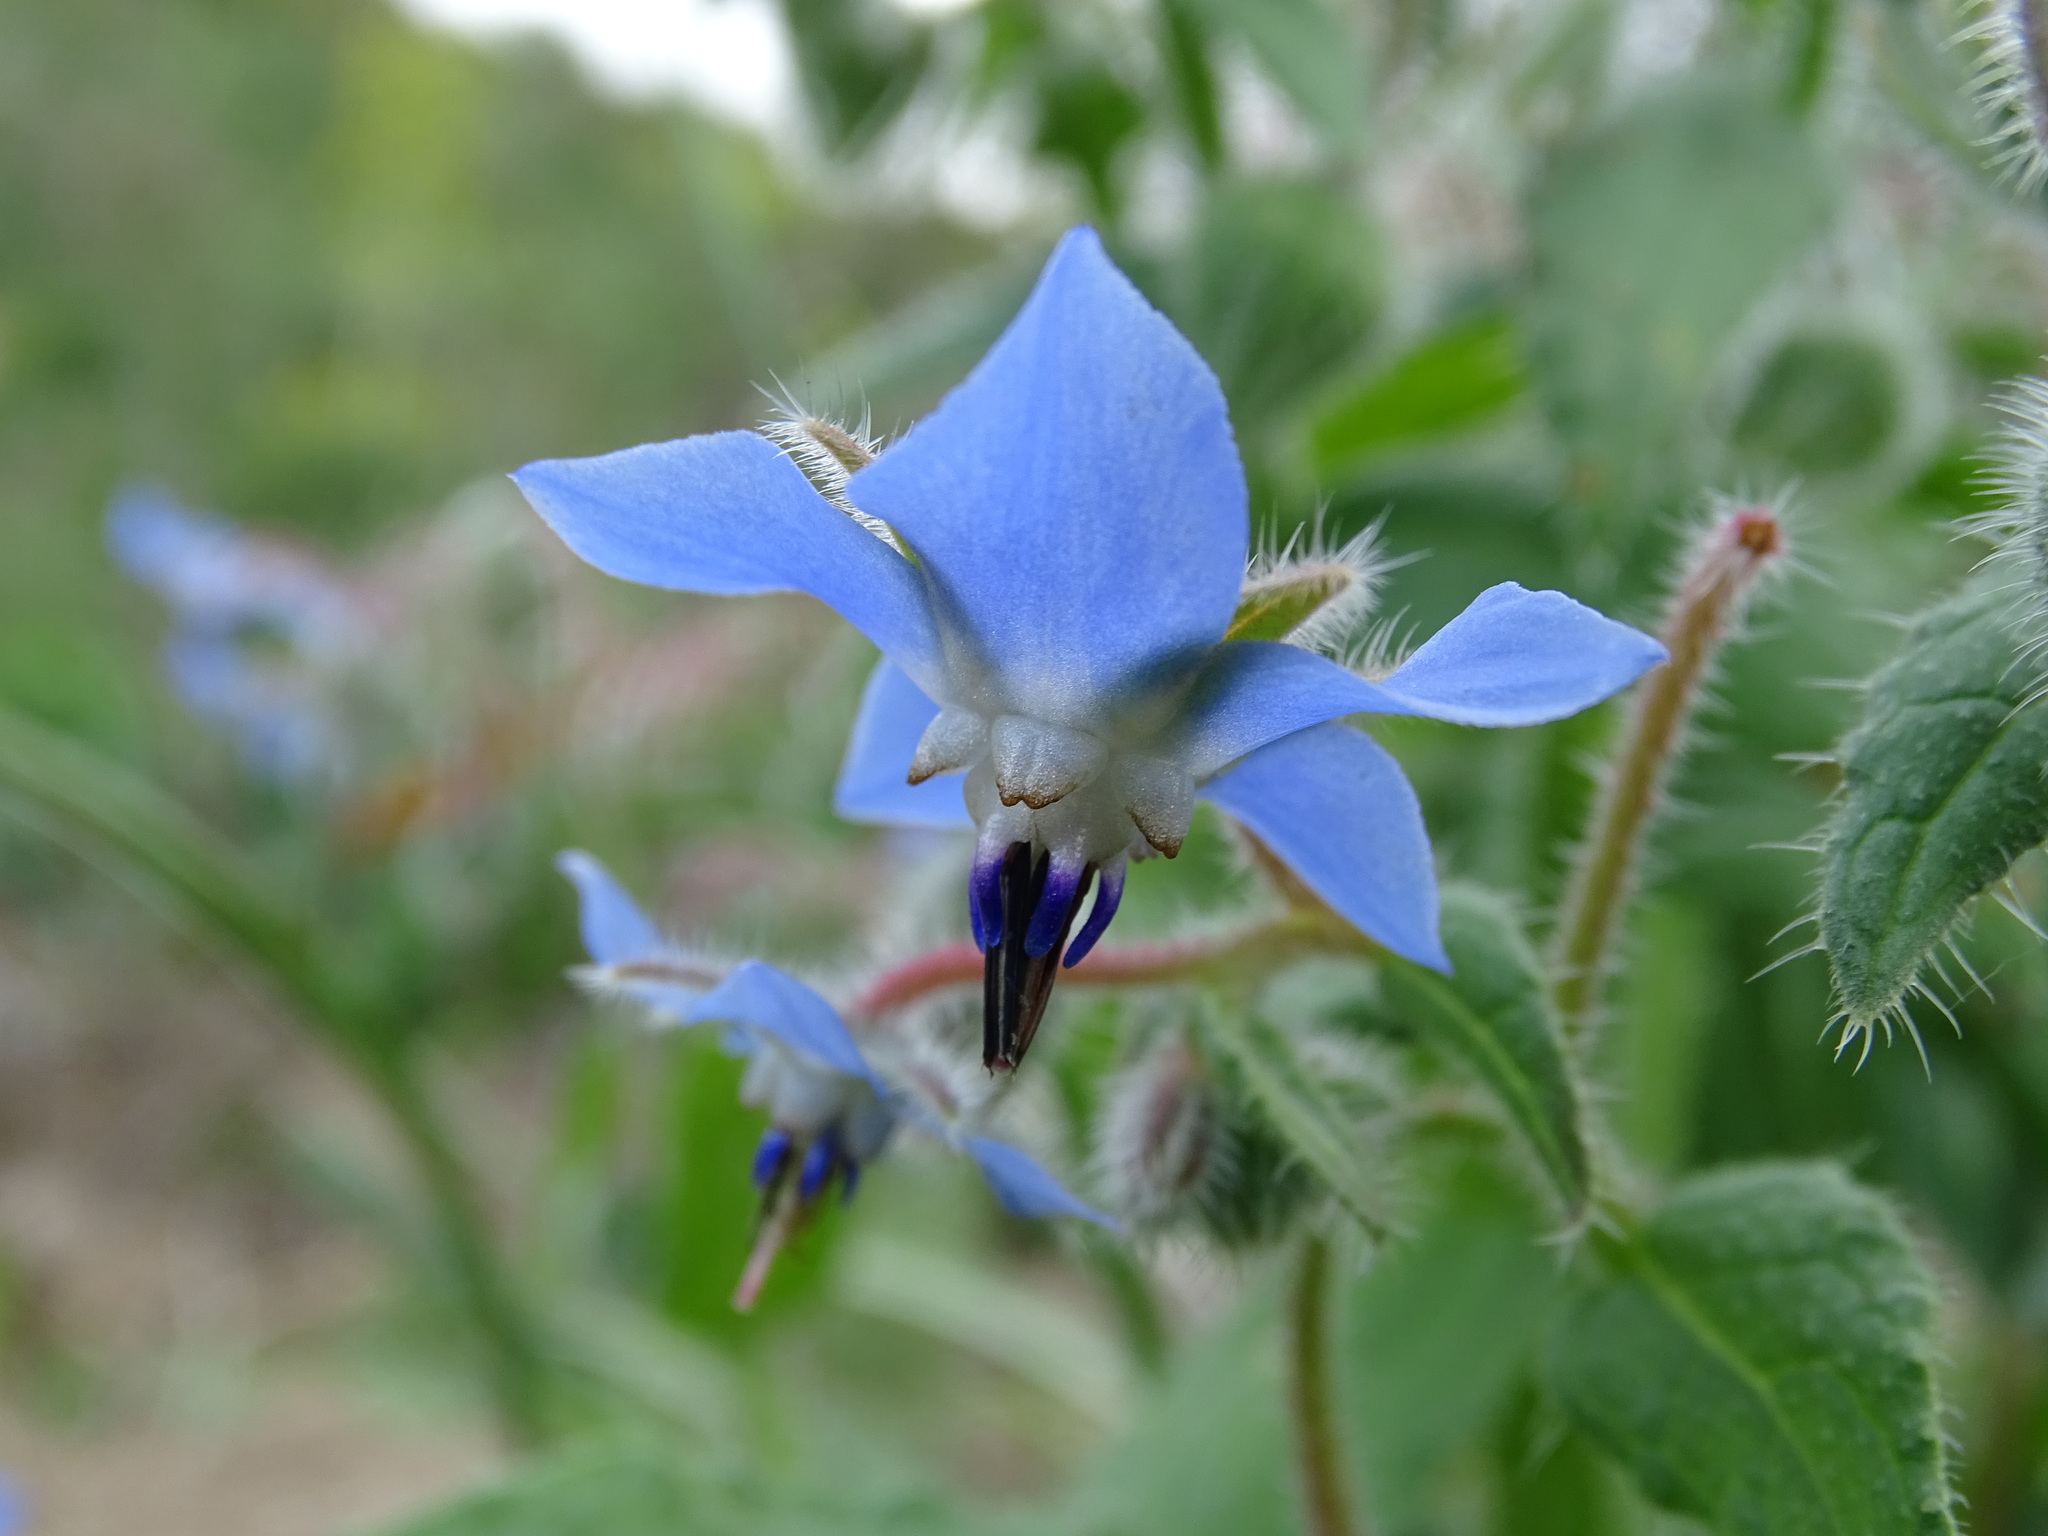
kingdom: Plantae
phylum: Tracheophyta
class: Magnoliopsida
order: Boraginales
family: Boraginaceae
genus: Borago
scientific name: Borago officinalis
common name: Borage
